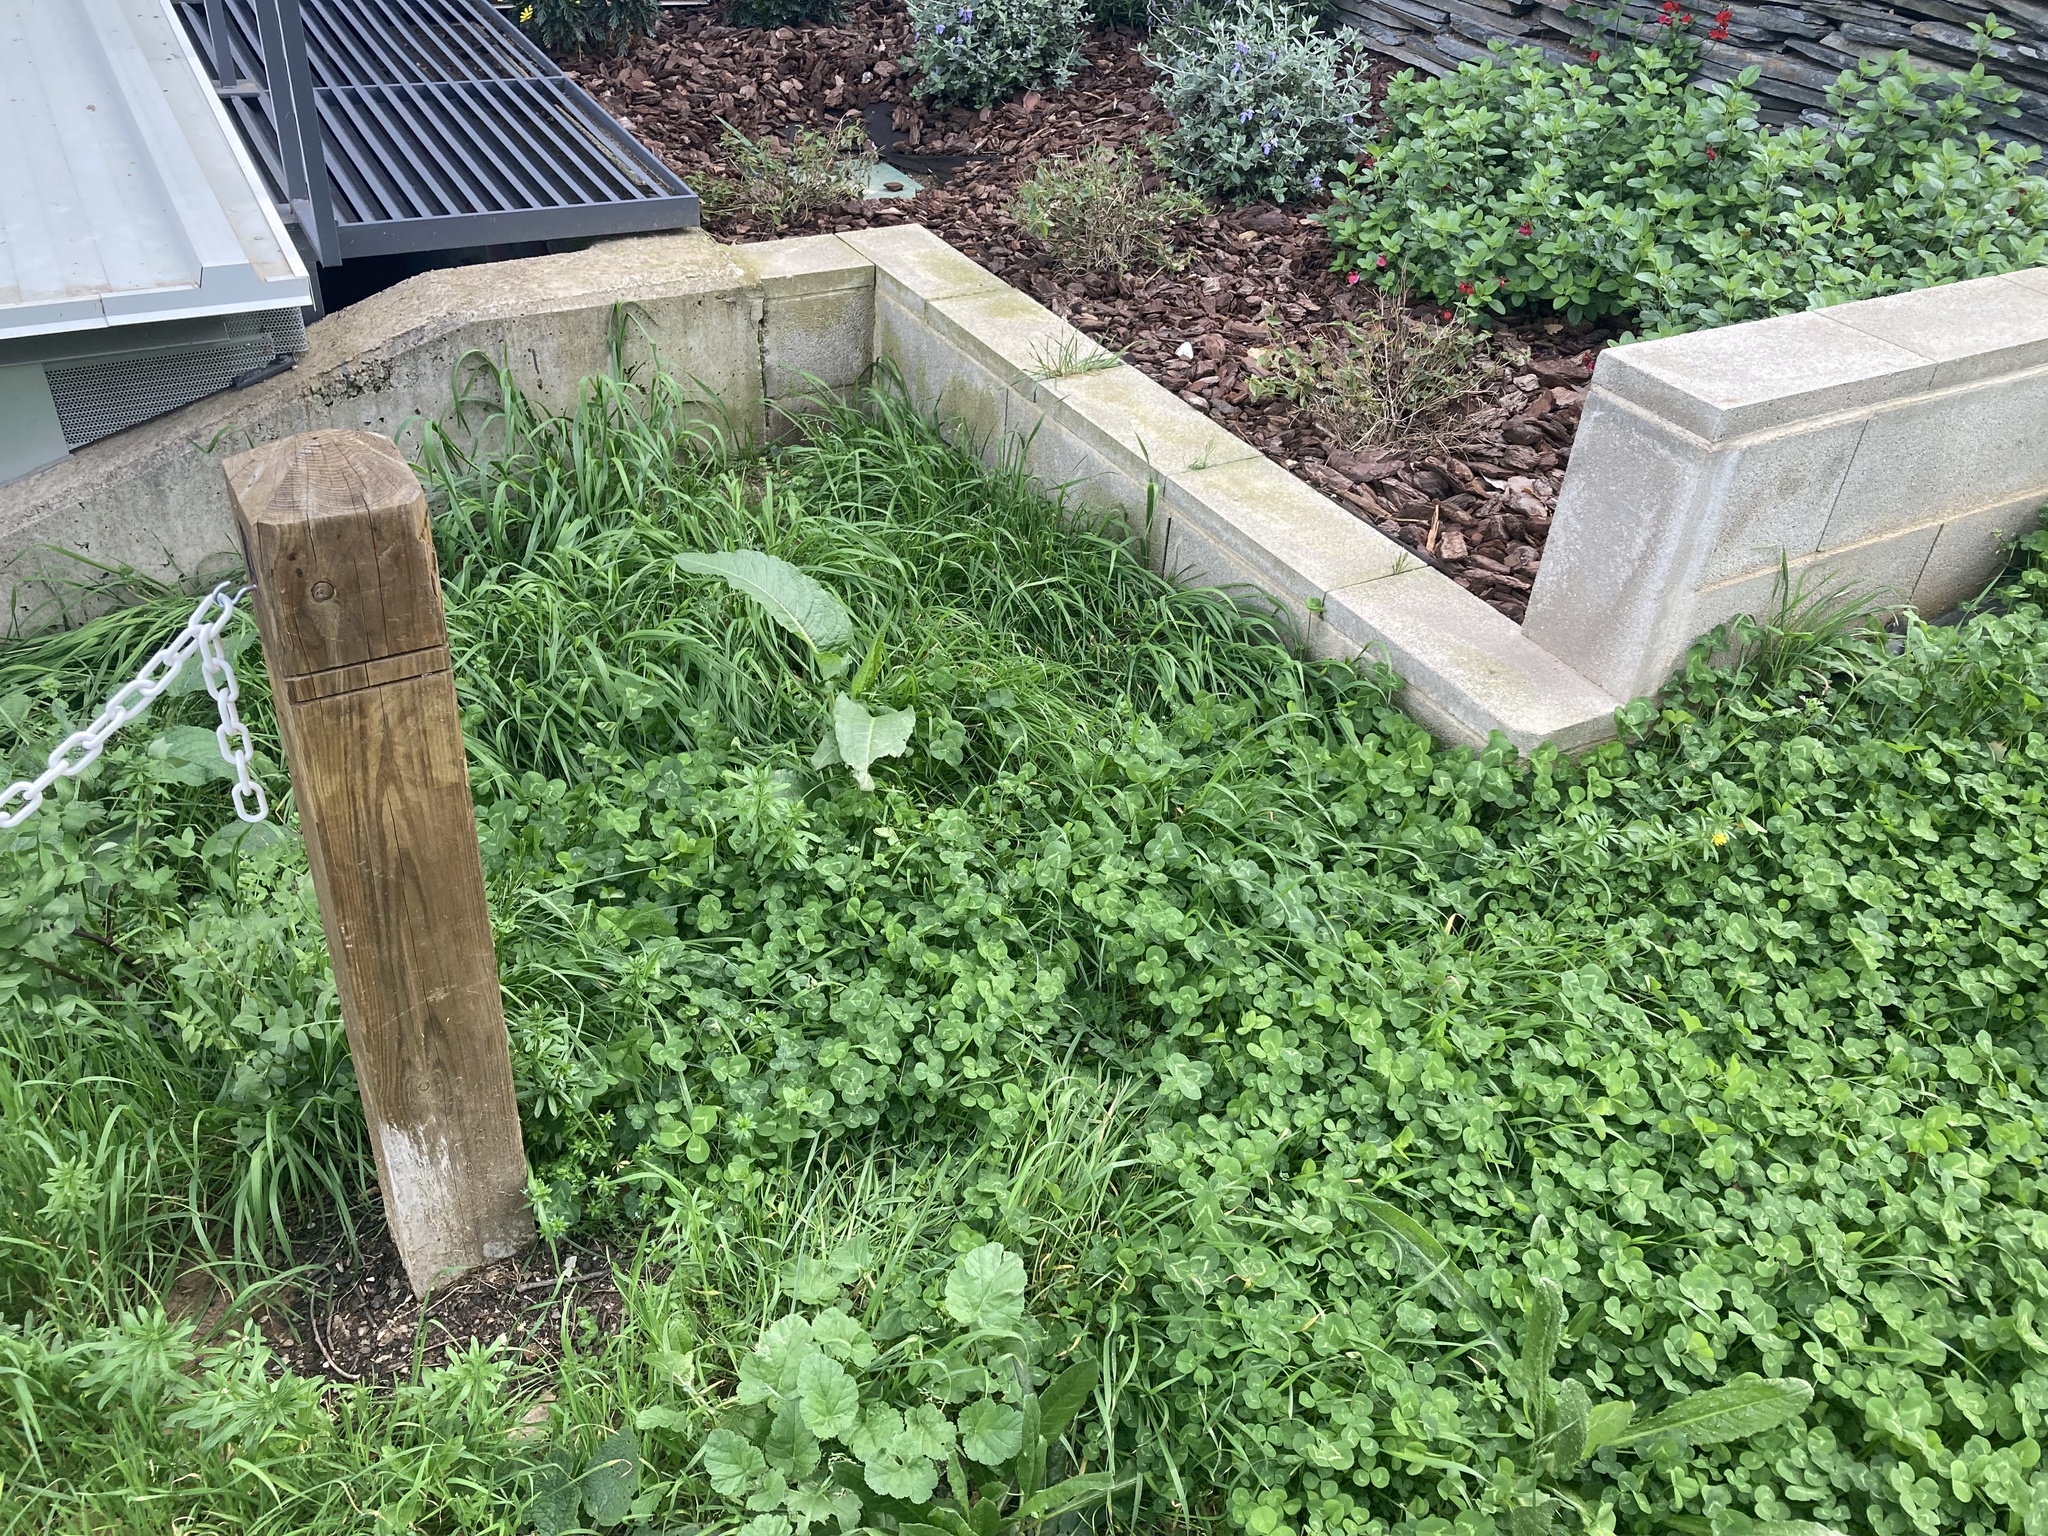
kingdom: Plantae
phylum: Tracheophyta
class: Magnoliopsida
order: Lamiales
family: Plantaginaceae
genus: Veronica
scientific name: Veronica persica
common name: Common field-speedwell
